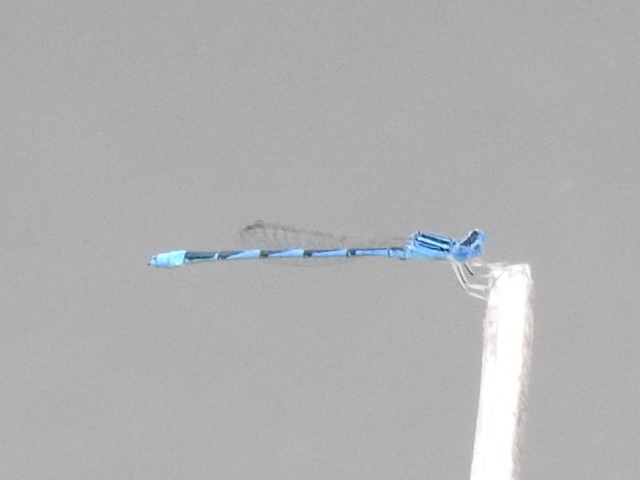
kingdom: Animalia
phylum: Arthropoda
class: Insecta
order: Odonata
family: Coenagrionidae
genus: Enallagma
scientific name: Enallagma basidens
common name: Double-striped bluet
